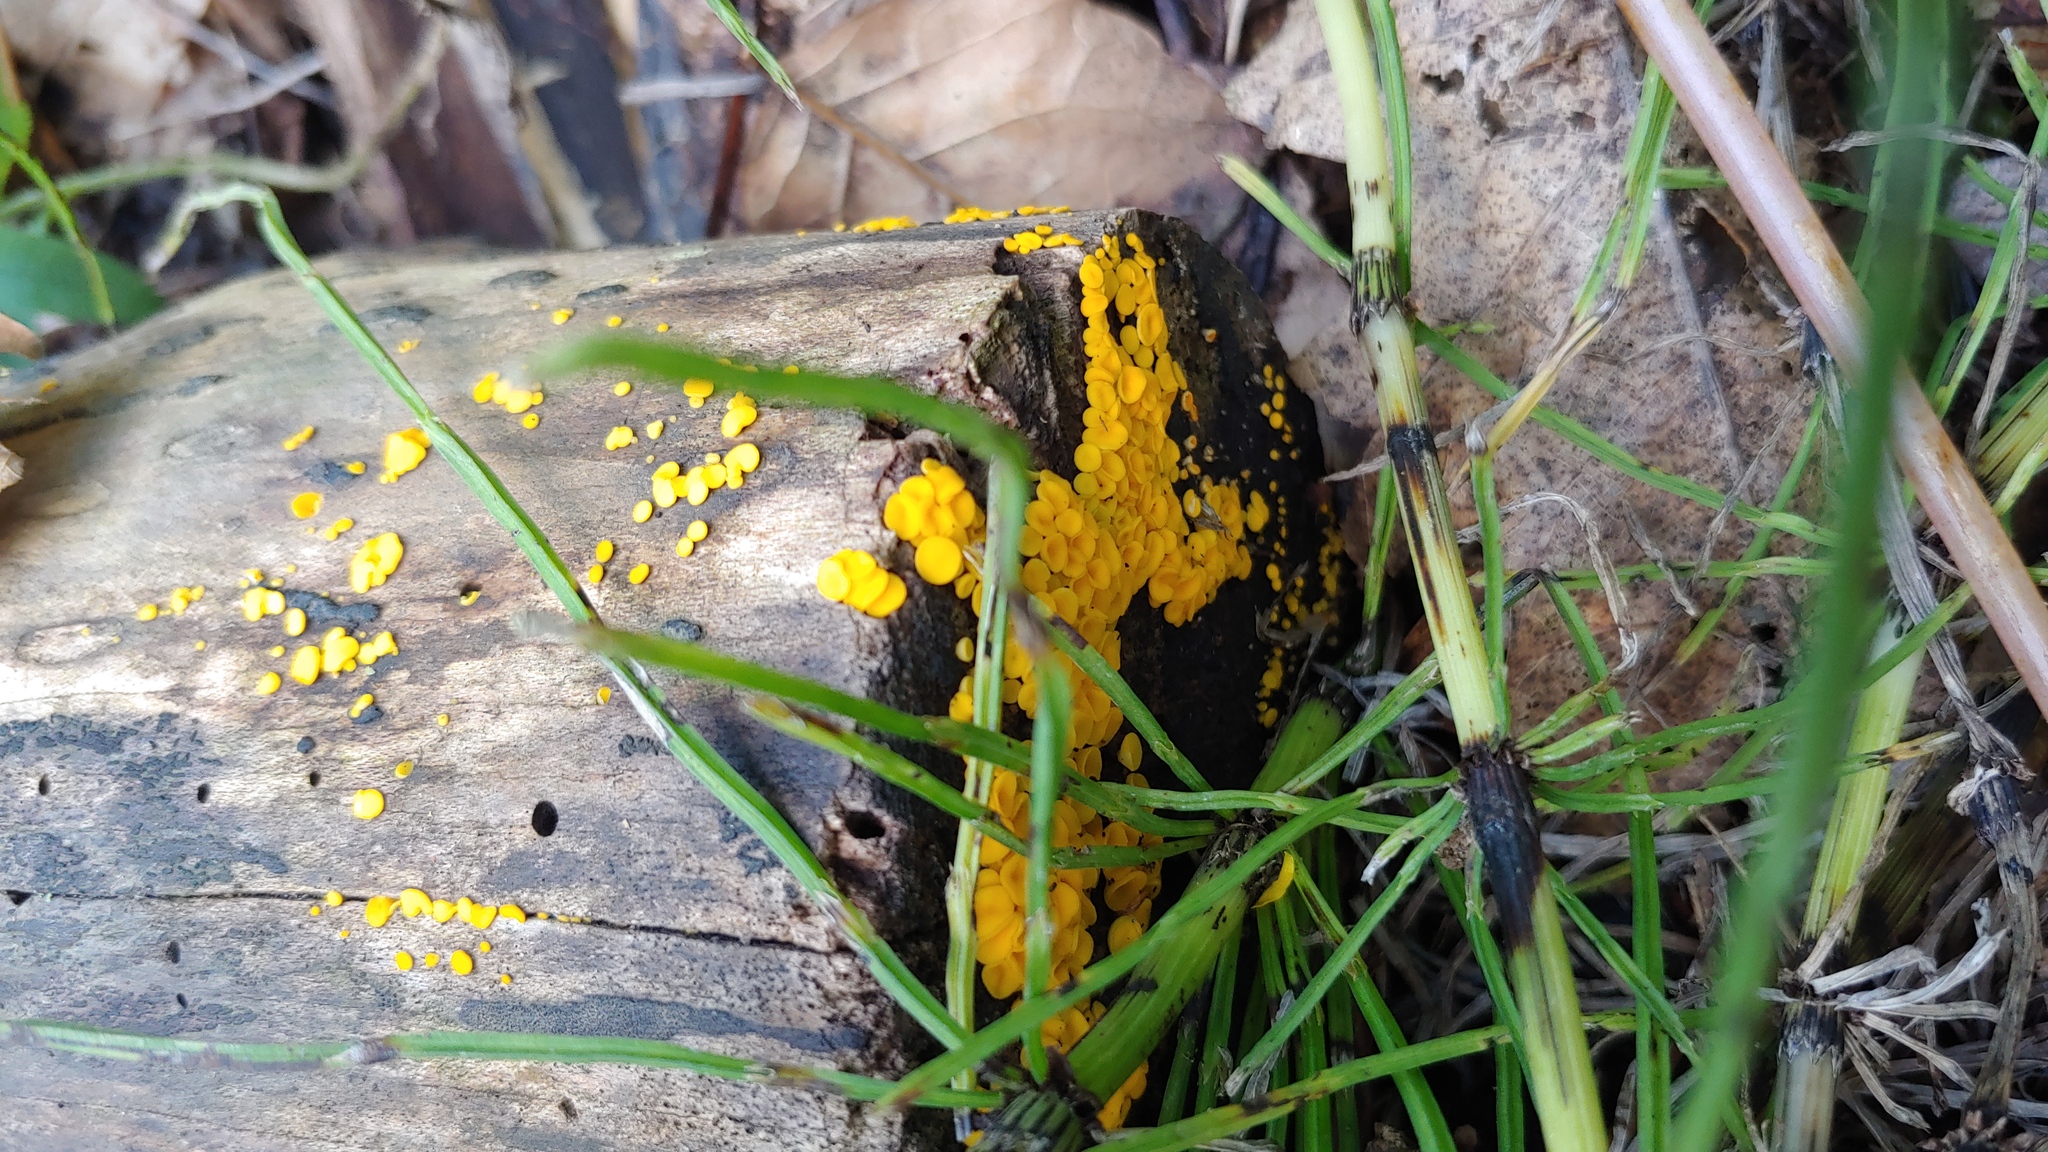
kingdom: Fungi
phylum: Ascomycota
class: Leotiomycetes
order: Helotiales
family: Pezizellaceae
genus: Calycina
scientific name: Calycina citrina
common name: Yellow fairy cups
